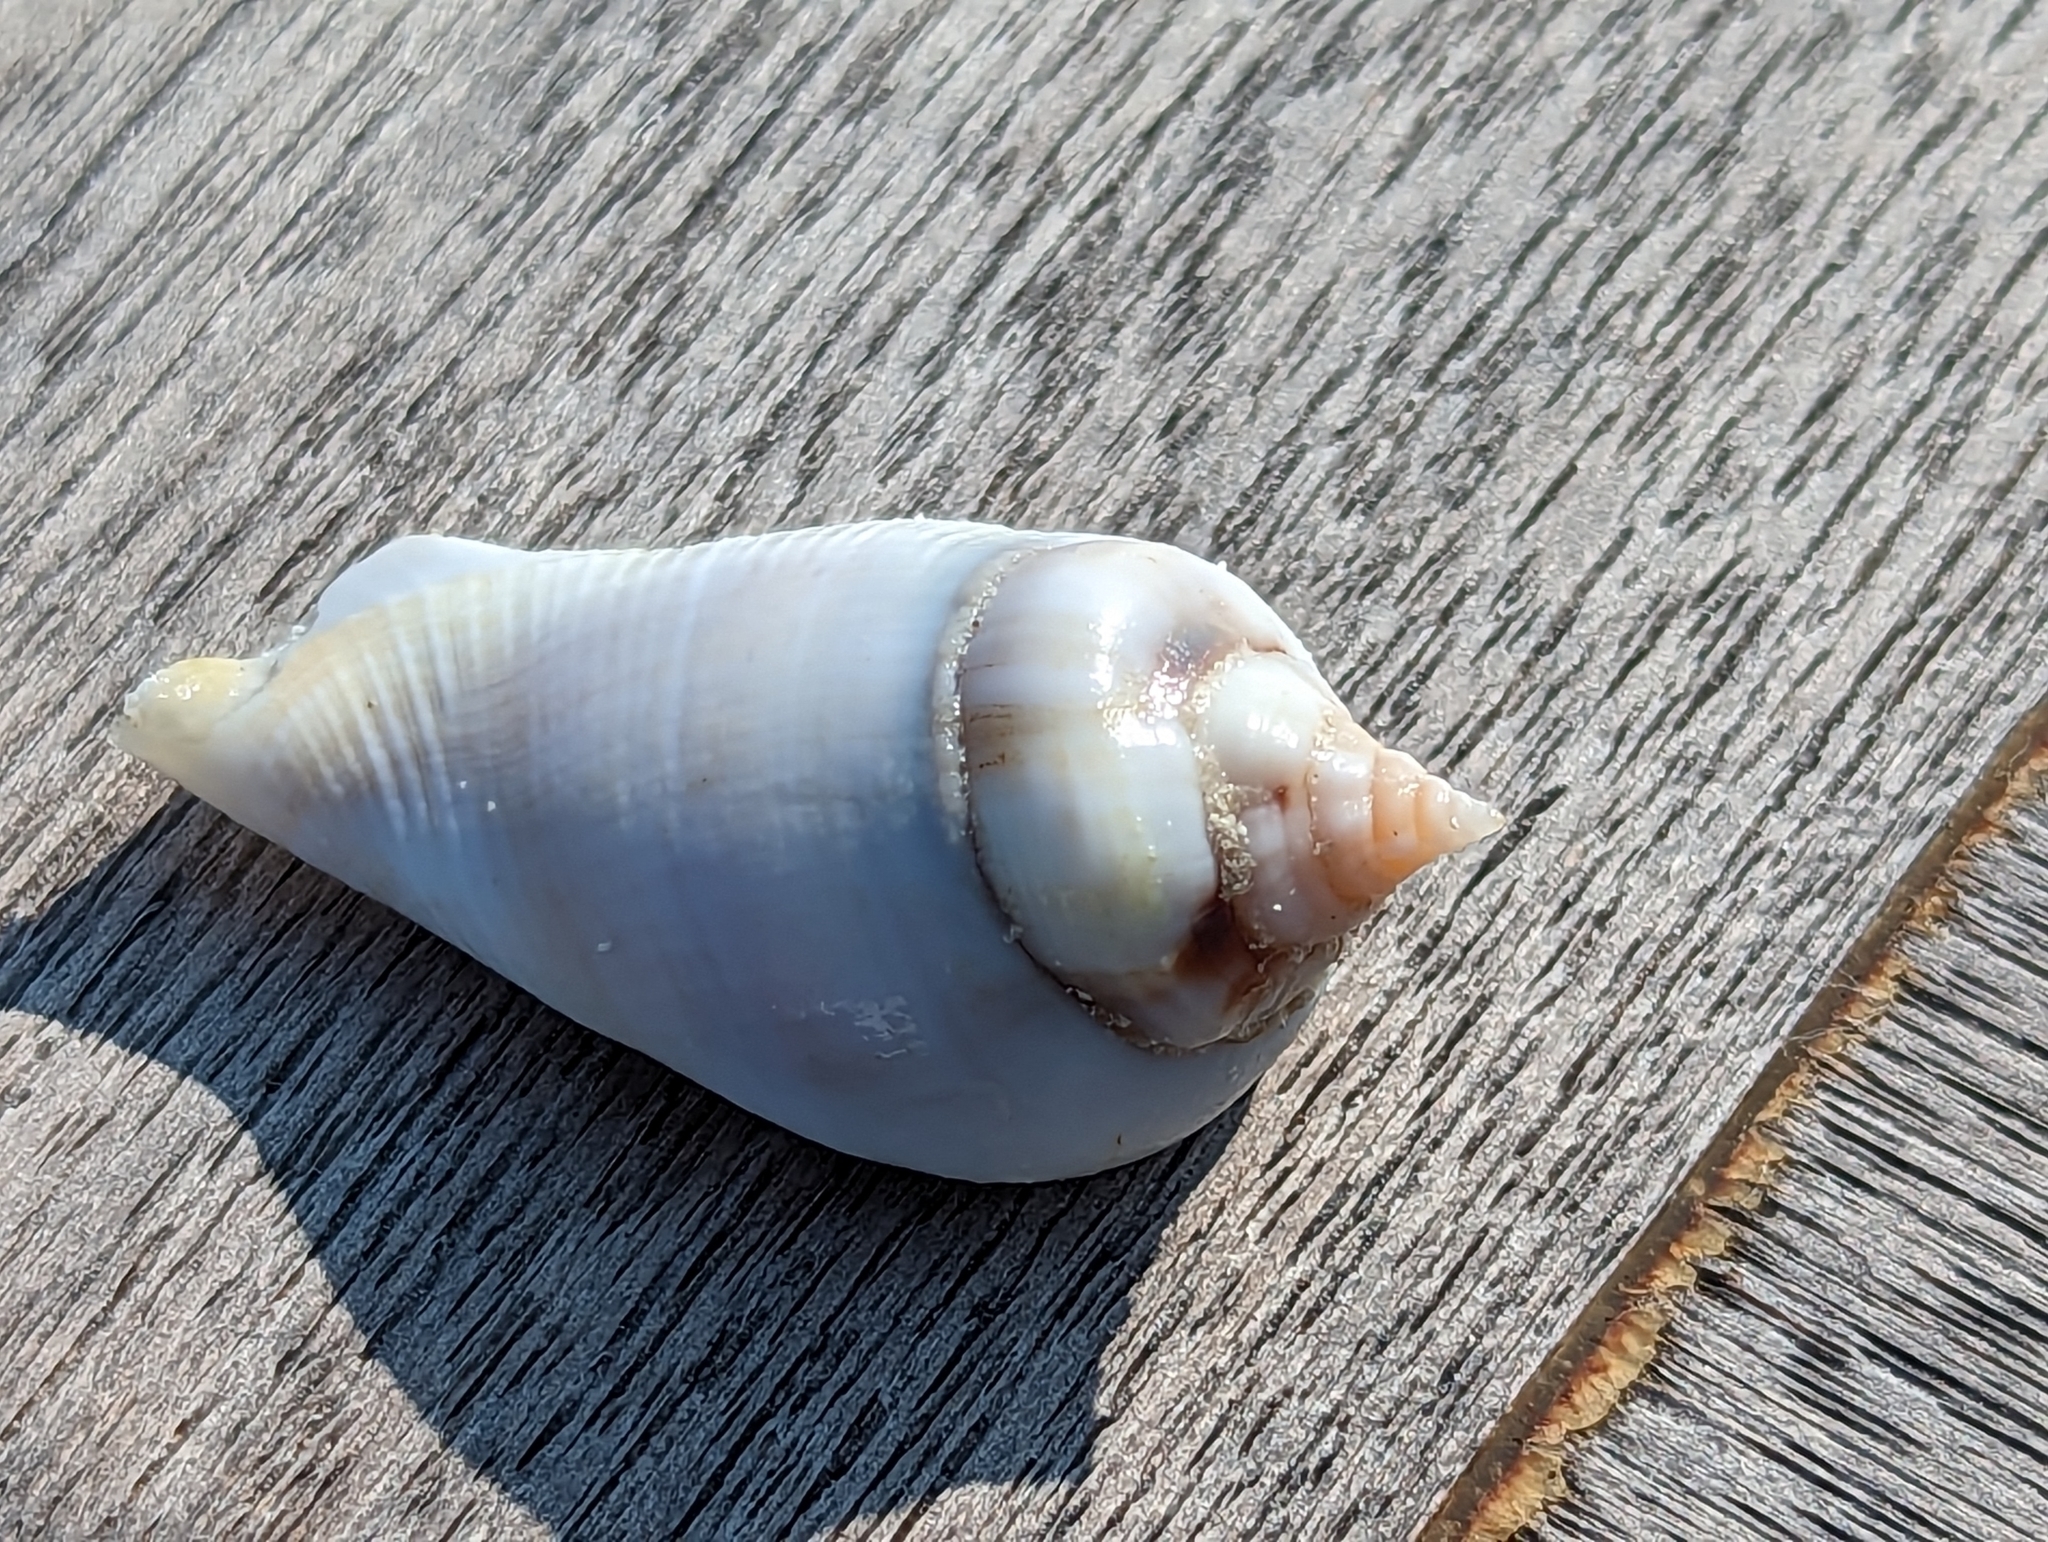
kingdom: Animalia
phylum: Mollusca
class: Gastropoda
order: Littorinimorpha
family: Strombidae
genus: Gibberulus
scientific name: Gibberulus gibberulus
